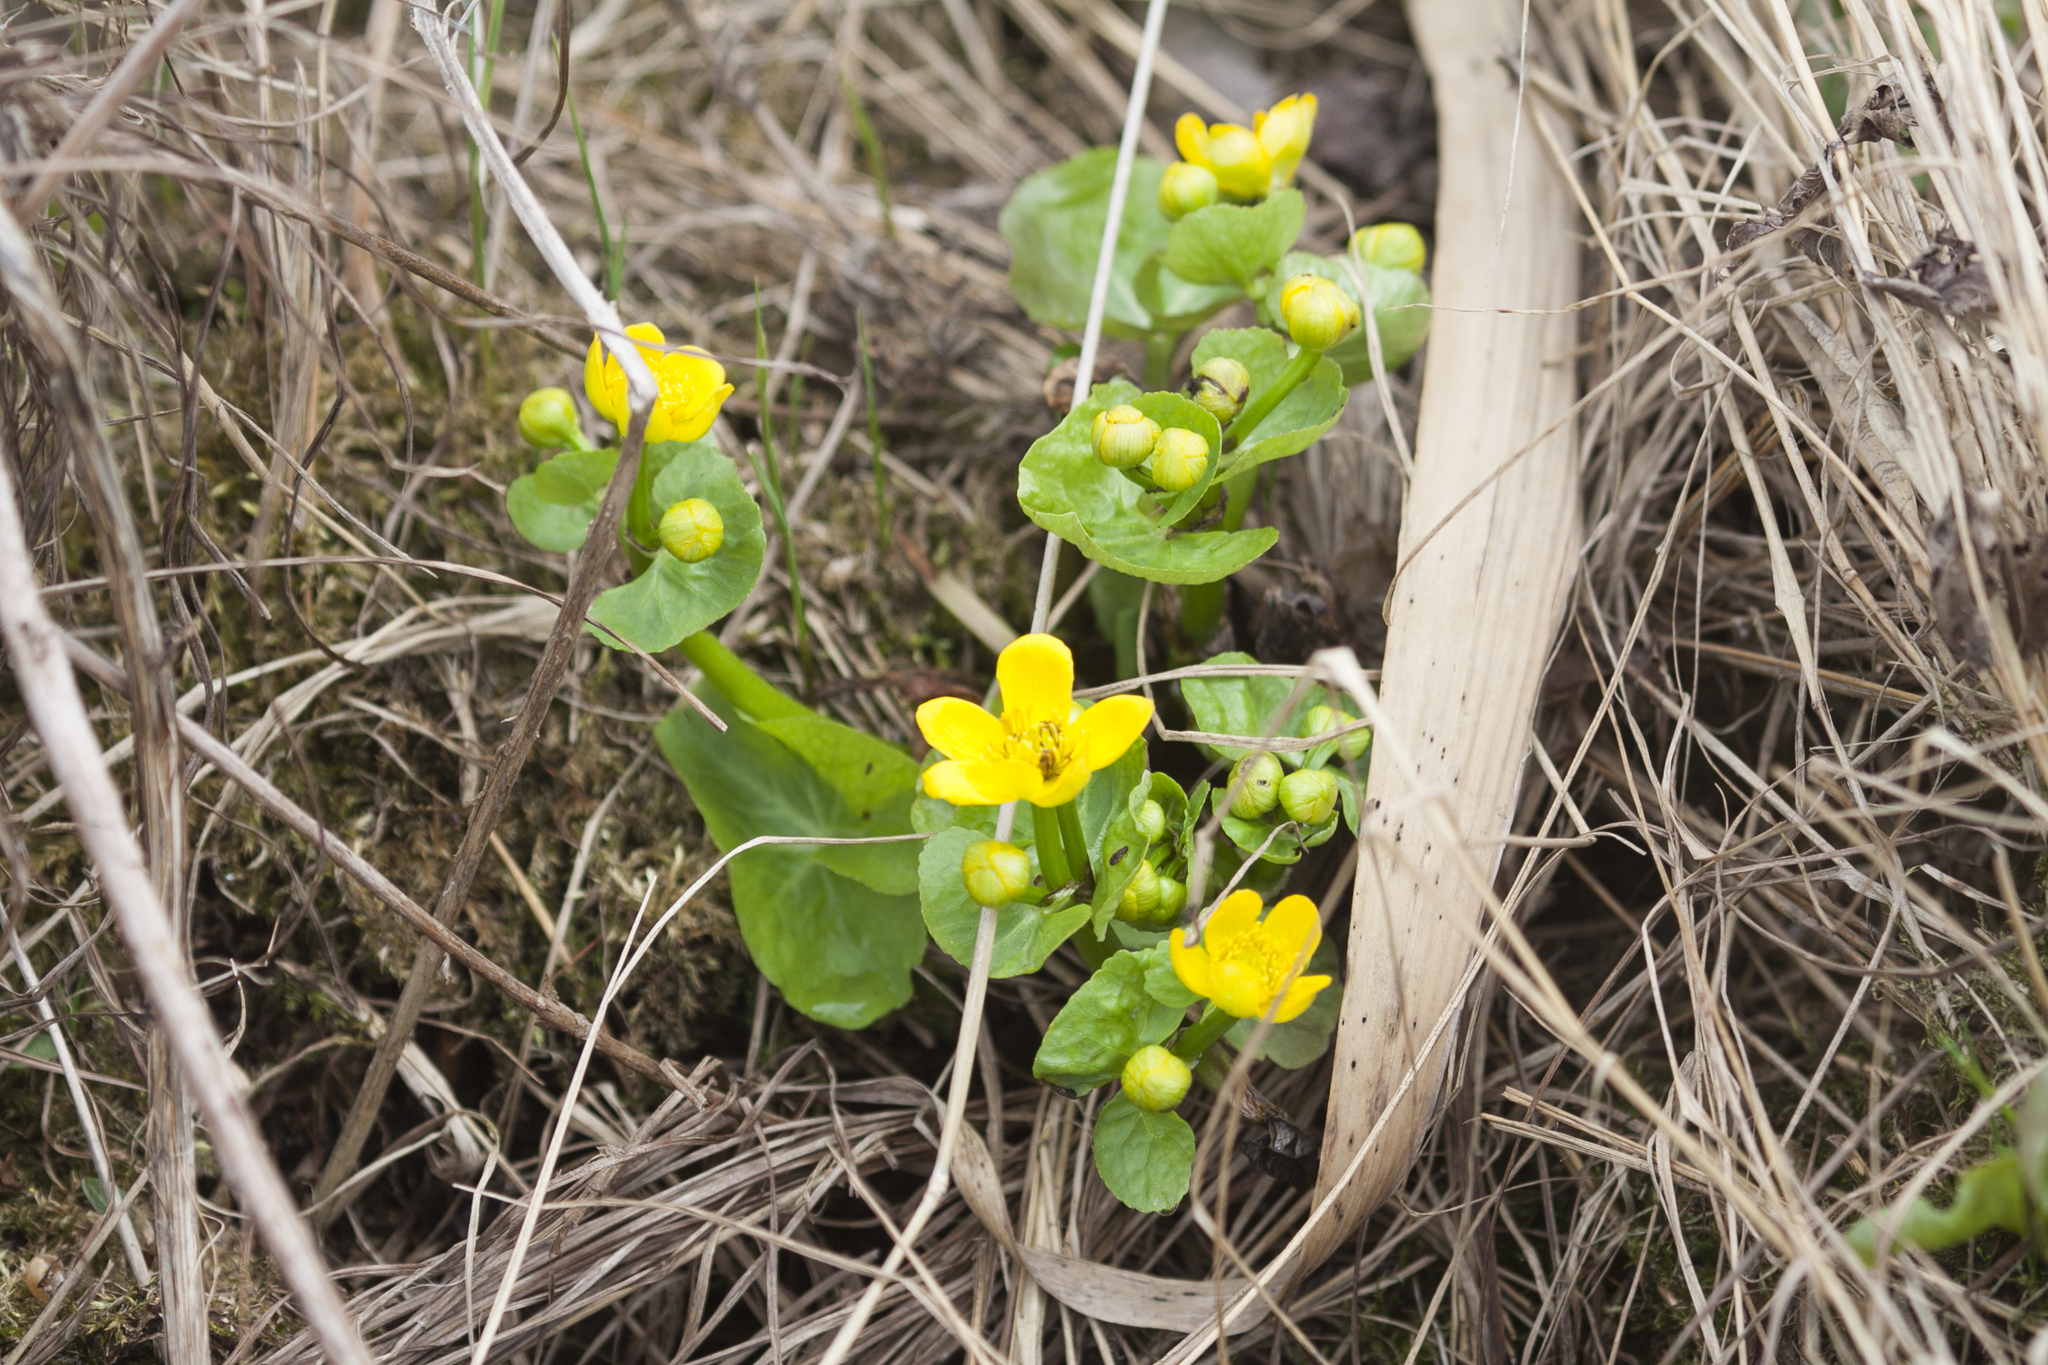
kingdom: Plantae
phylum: Tracheophyta
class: Magnoliopsida
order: Ranunculales
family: Ranunculaceae
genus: Caltha
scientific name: Caltha palustris
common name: Marsh marigold
